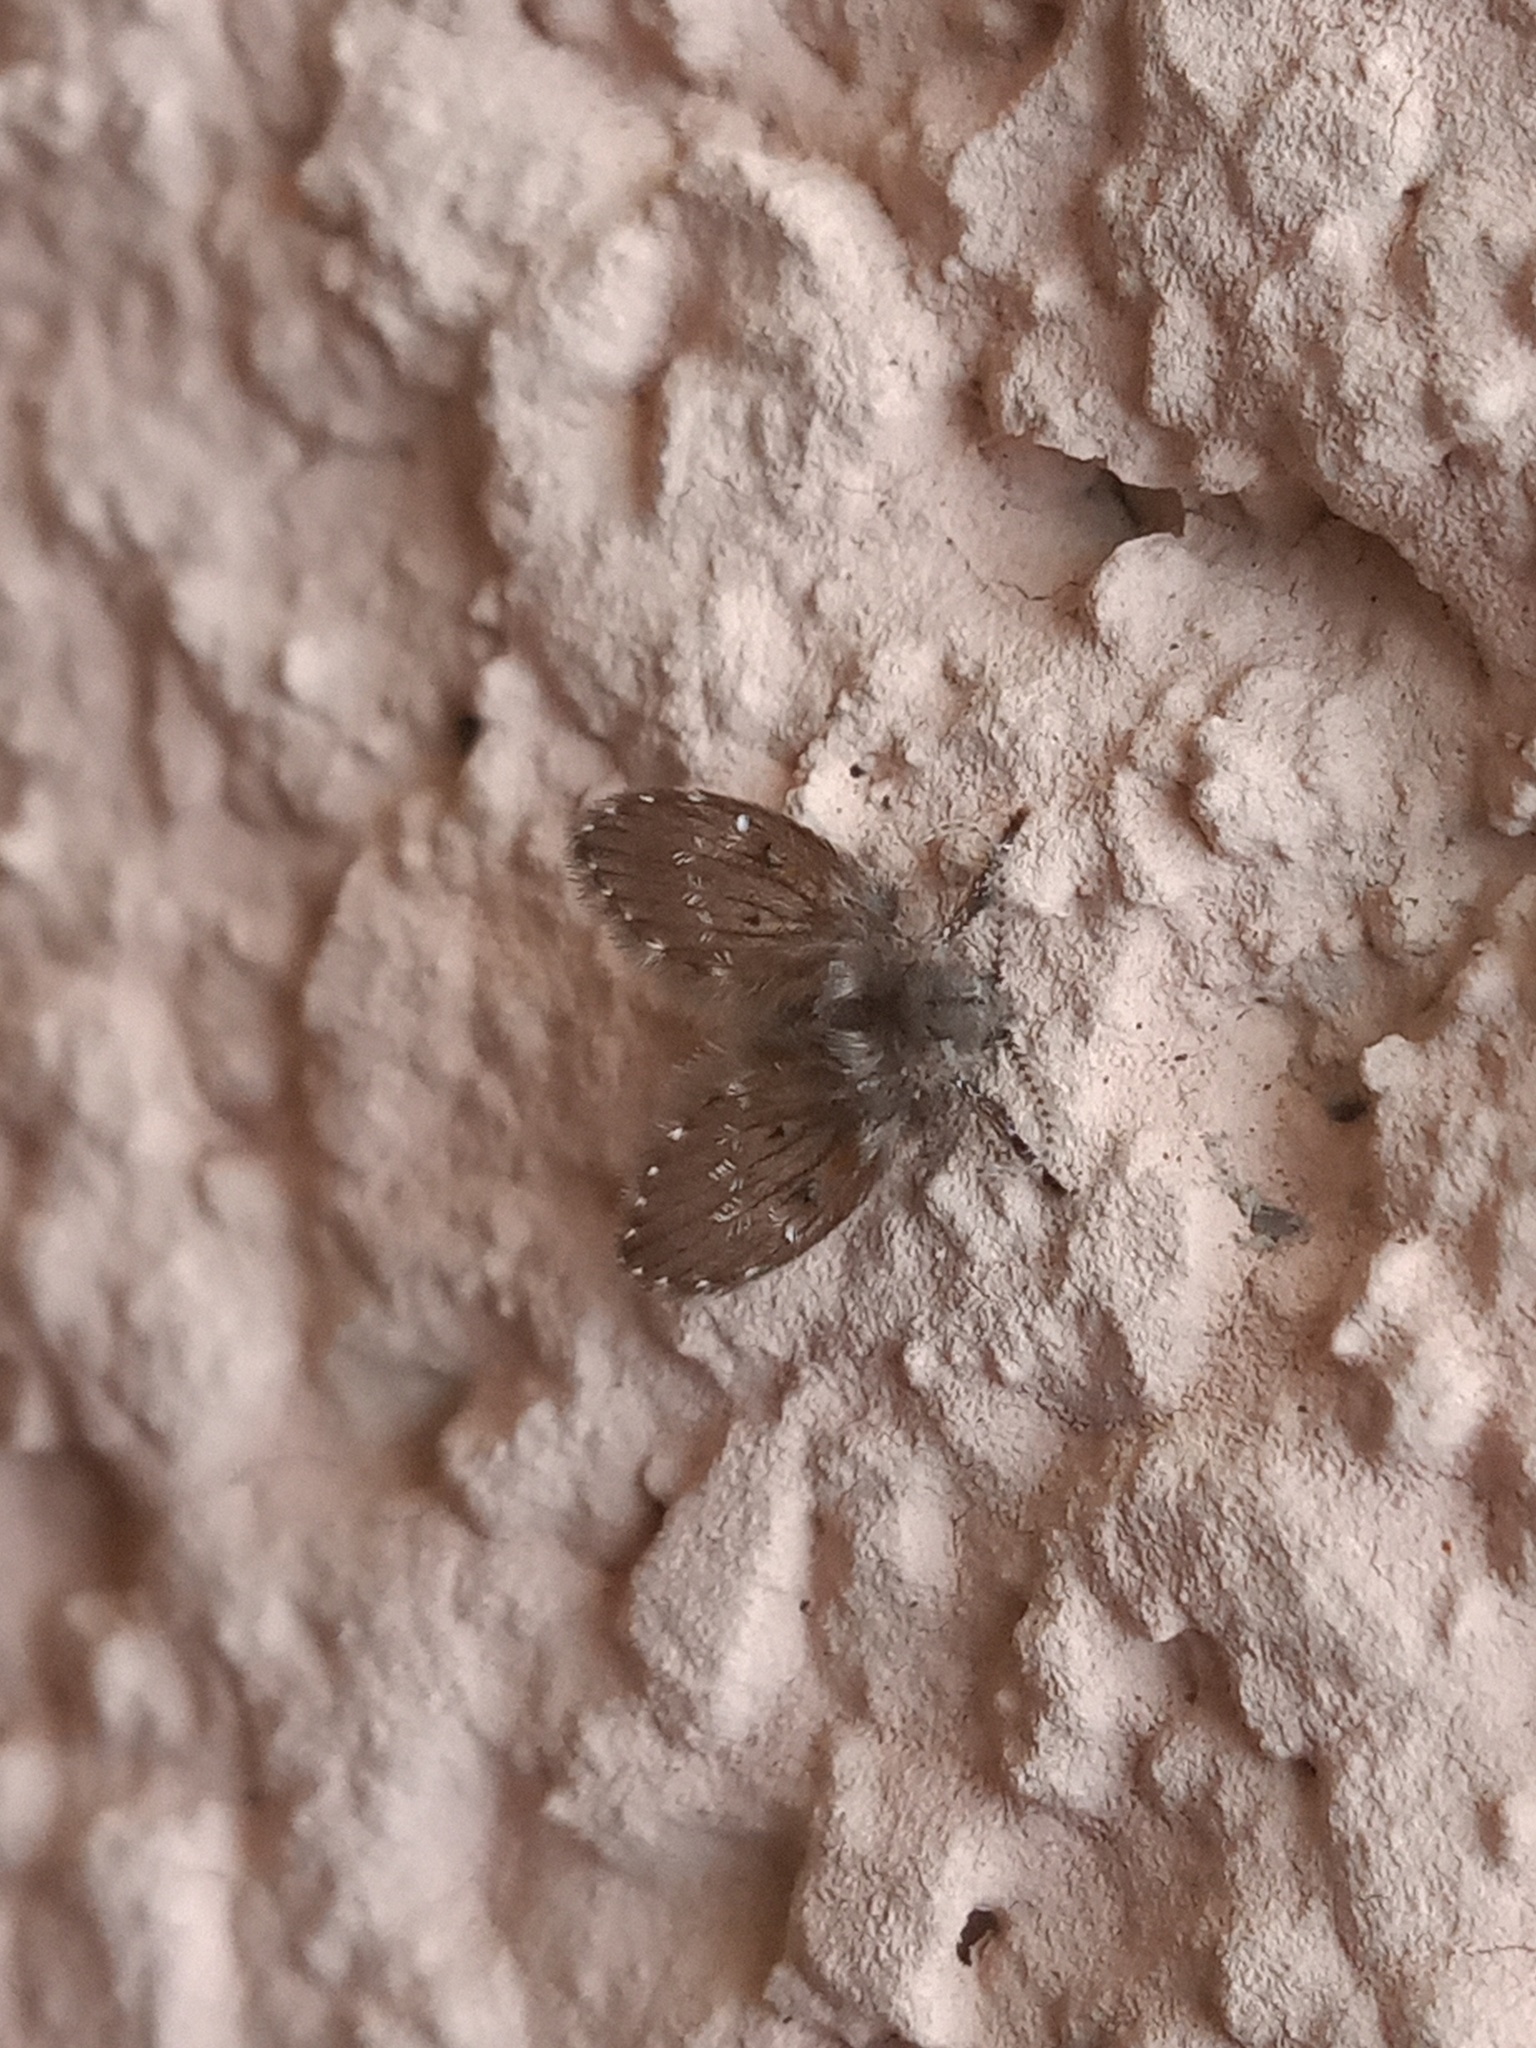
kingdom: Animalia
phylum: Arthropoda
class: Insecta
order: Diptera
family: Psychodidae
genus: Clogmia
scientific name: Clogmia albipunctatus
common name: White-spotted moth fly
